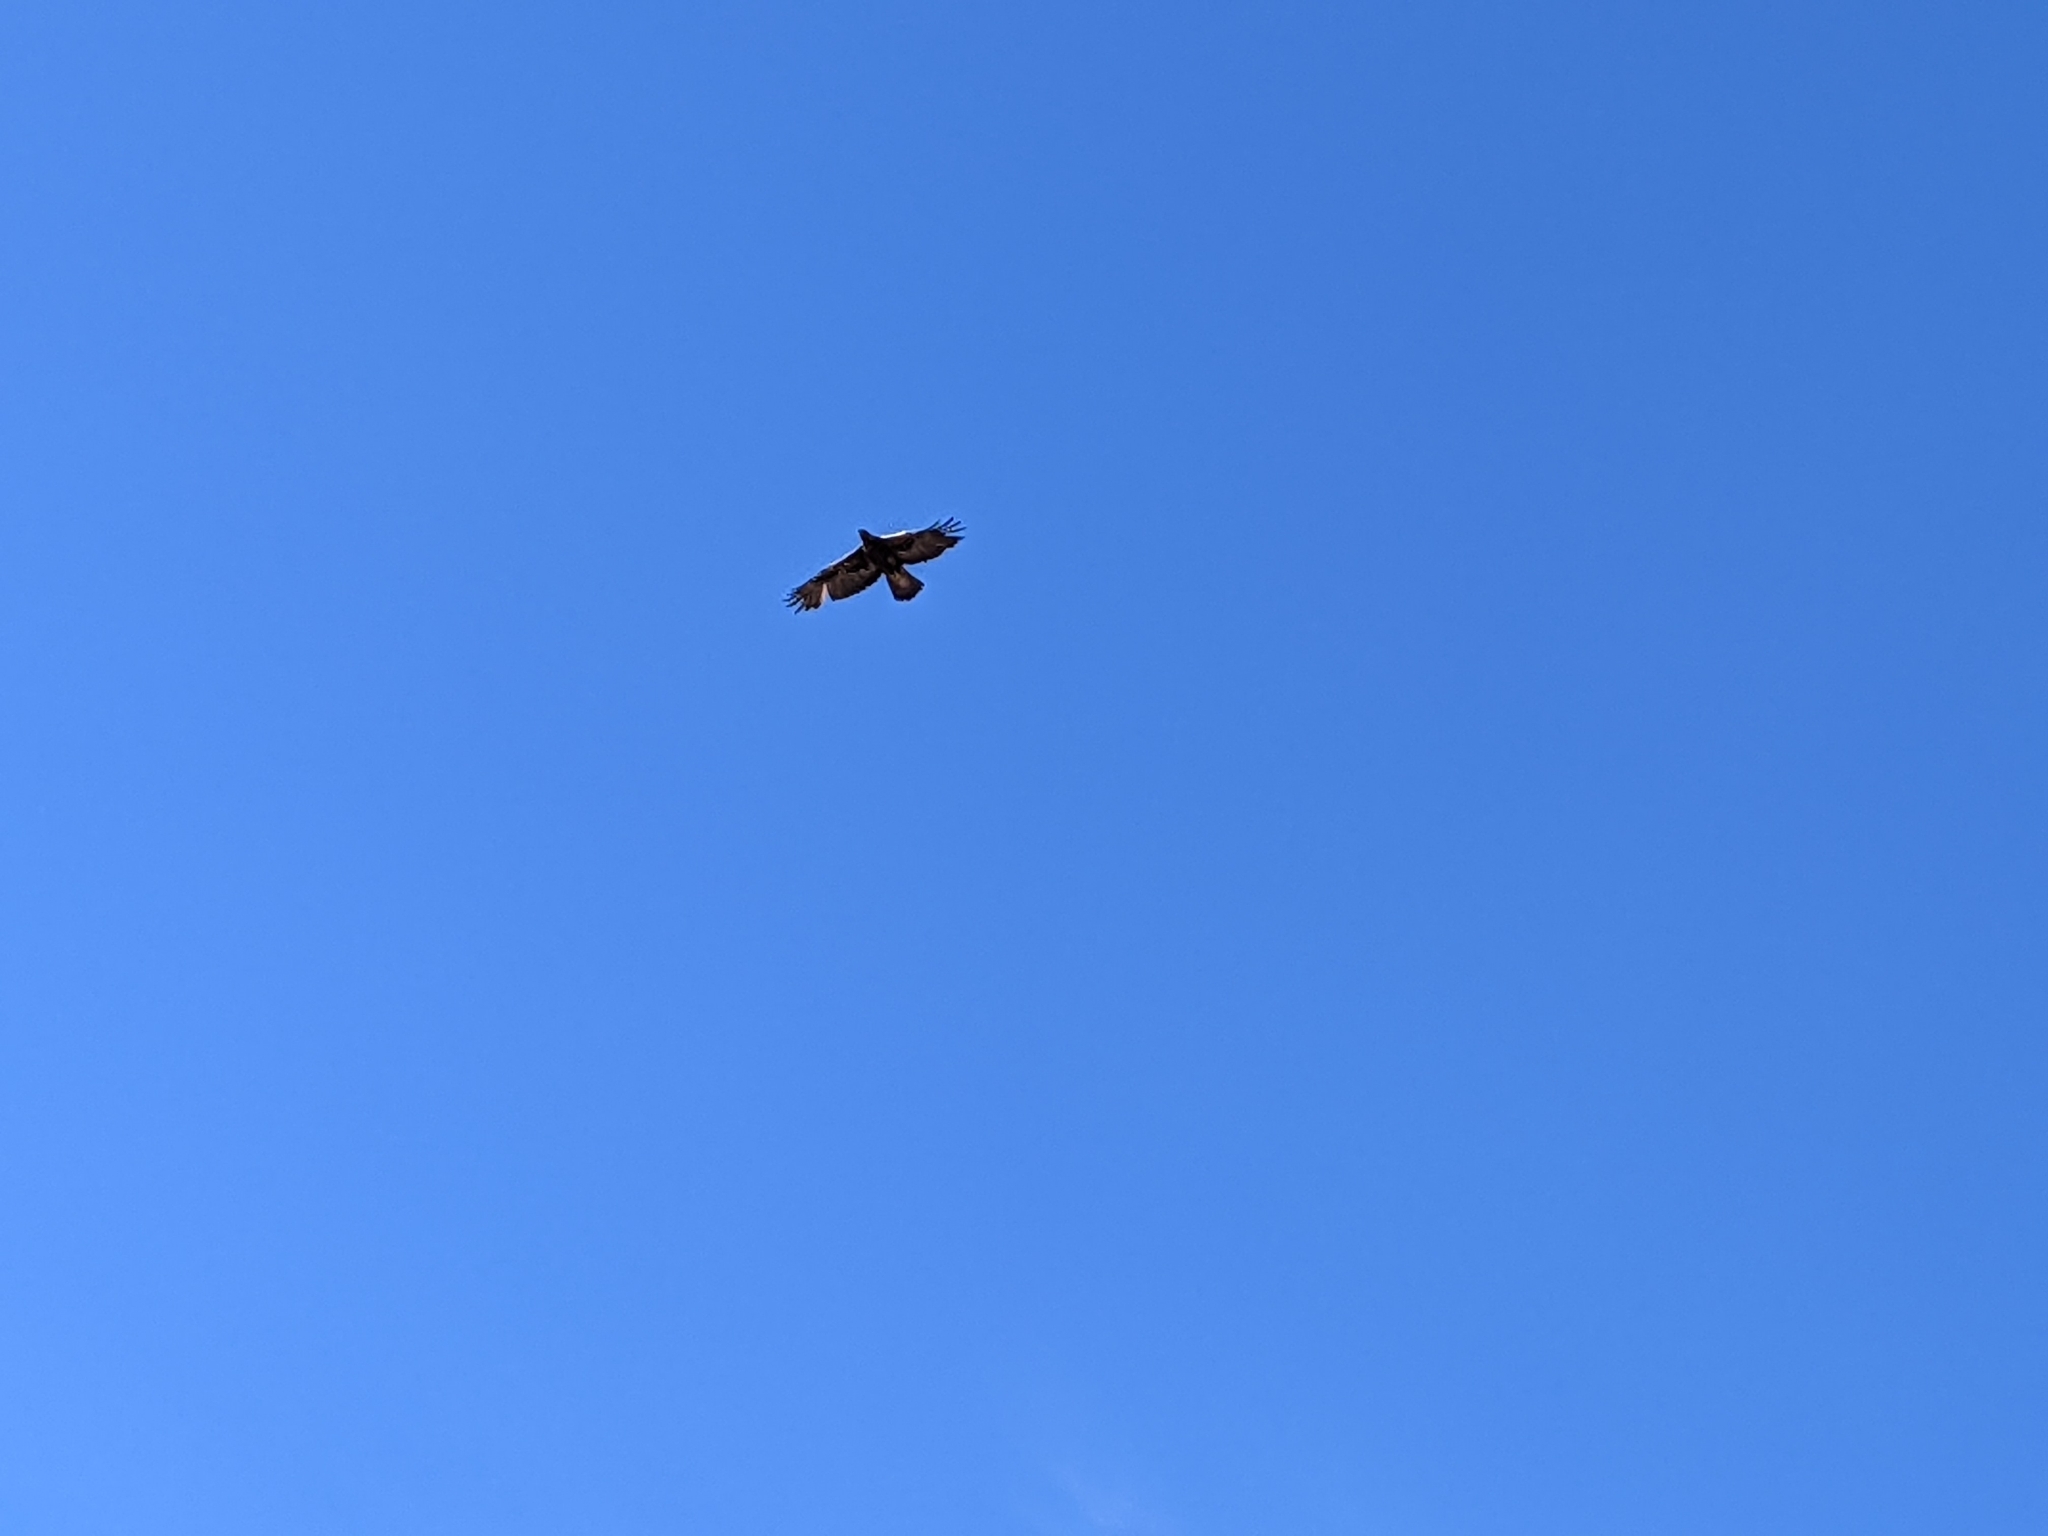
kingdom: Animalia
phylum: Chordata
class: Aves
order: Accipitriformes
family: Accipitridae
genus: Aquila
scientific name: Aquila chrysaetos
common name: Golden eagle
